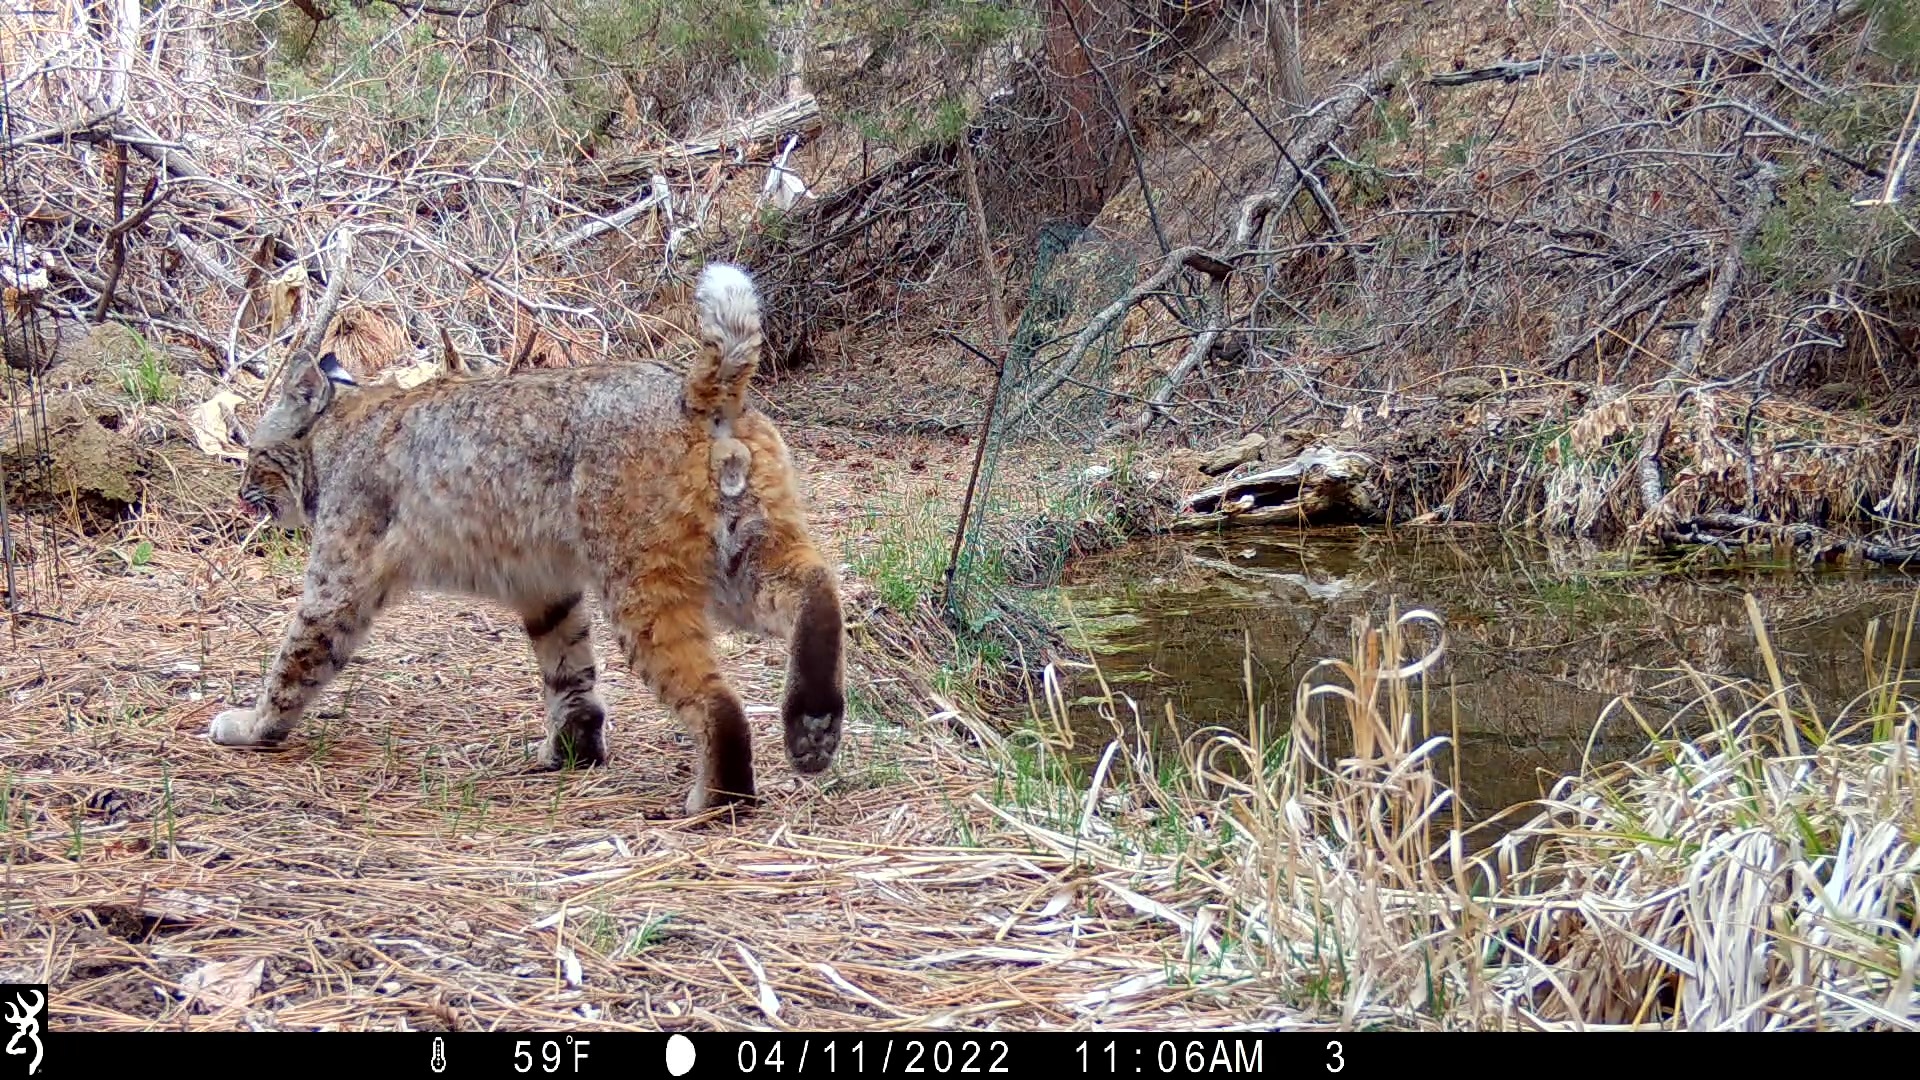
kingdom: Animalia
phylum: Chordata
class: Mammalia
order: Carnivora
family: Felidae
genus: Lynx
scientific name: Lynx rufus
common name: Bobcat
